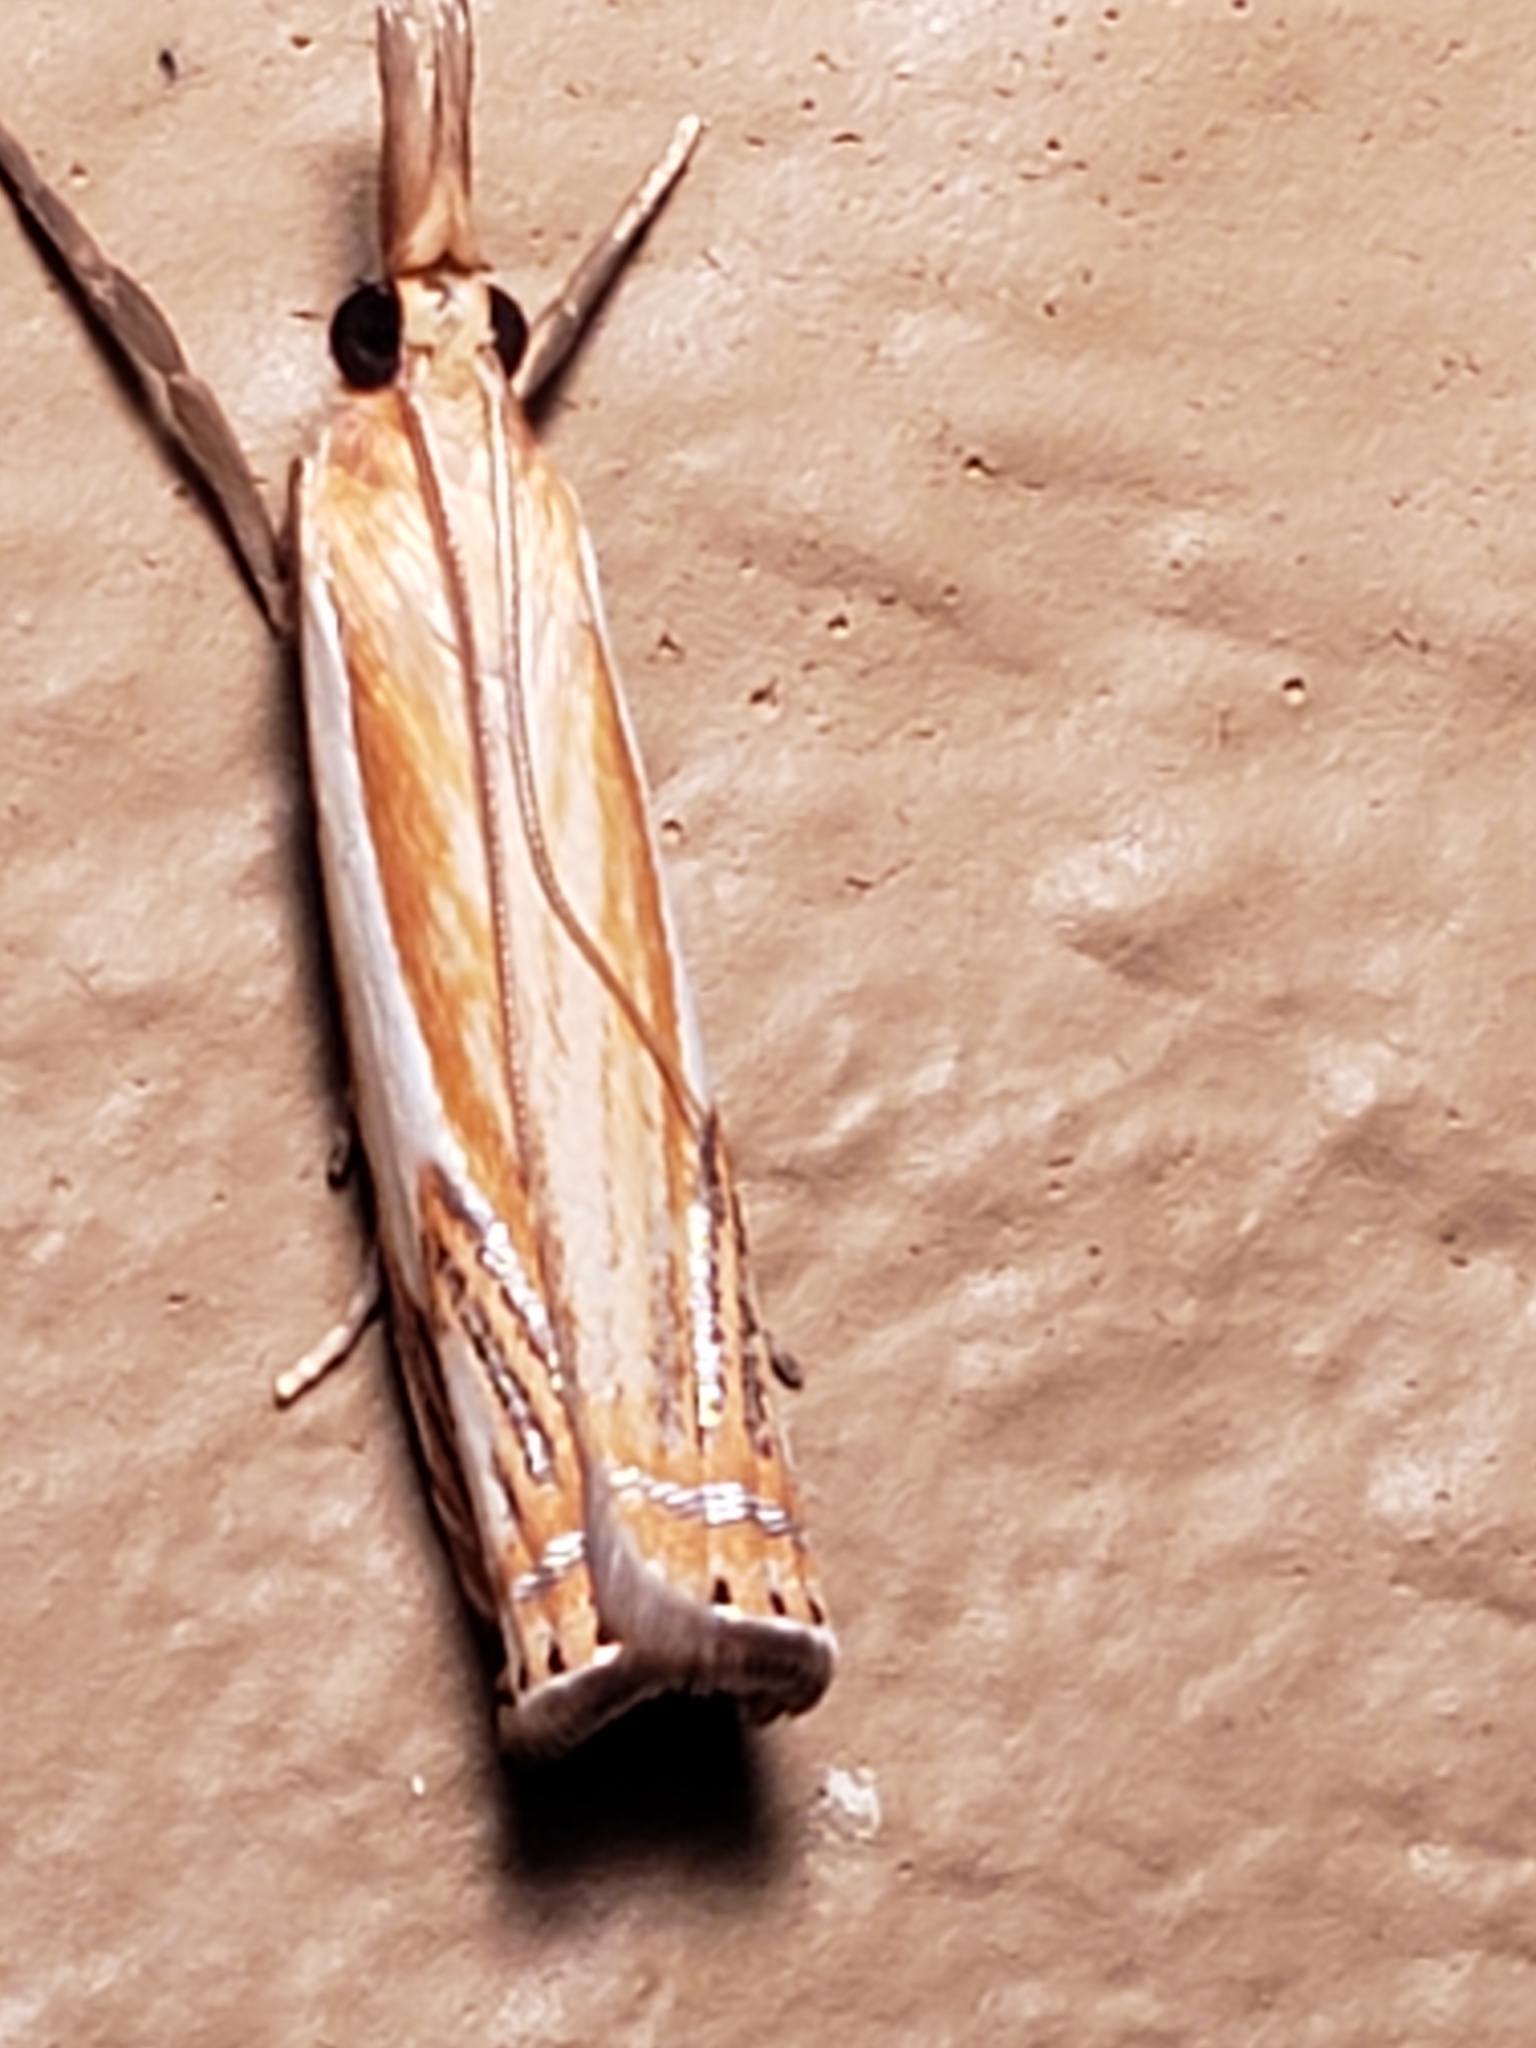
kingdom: Animalia
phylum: Arthropoda
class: Insecta
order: Lepidoptera
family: Crambidae
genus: Crambus
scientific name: Crambus
